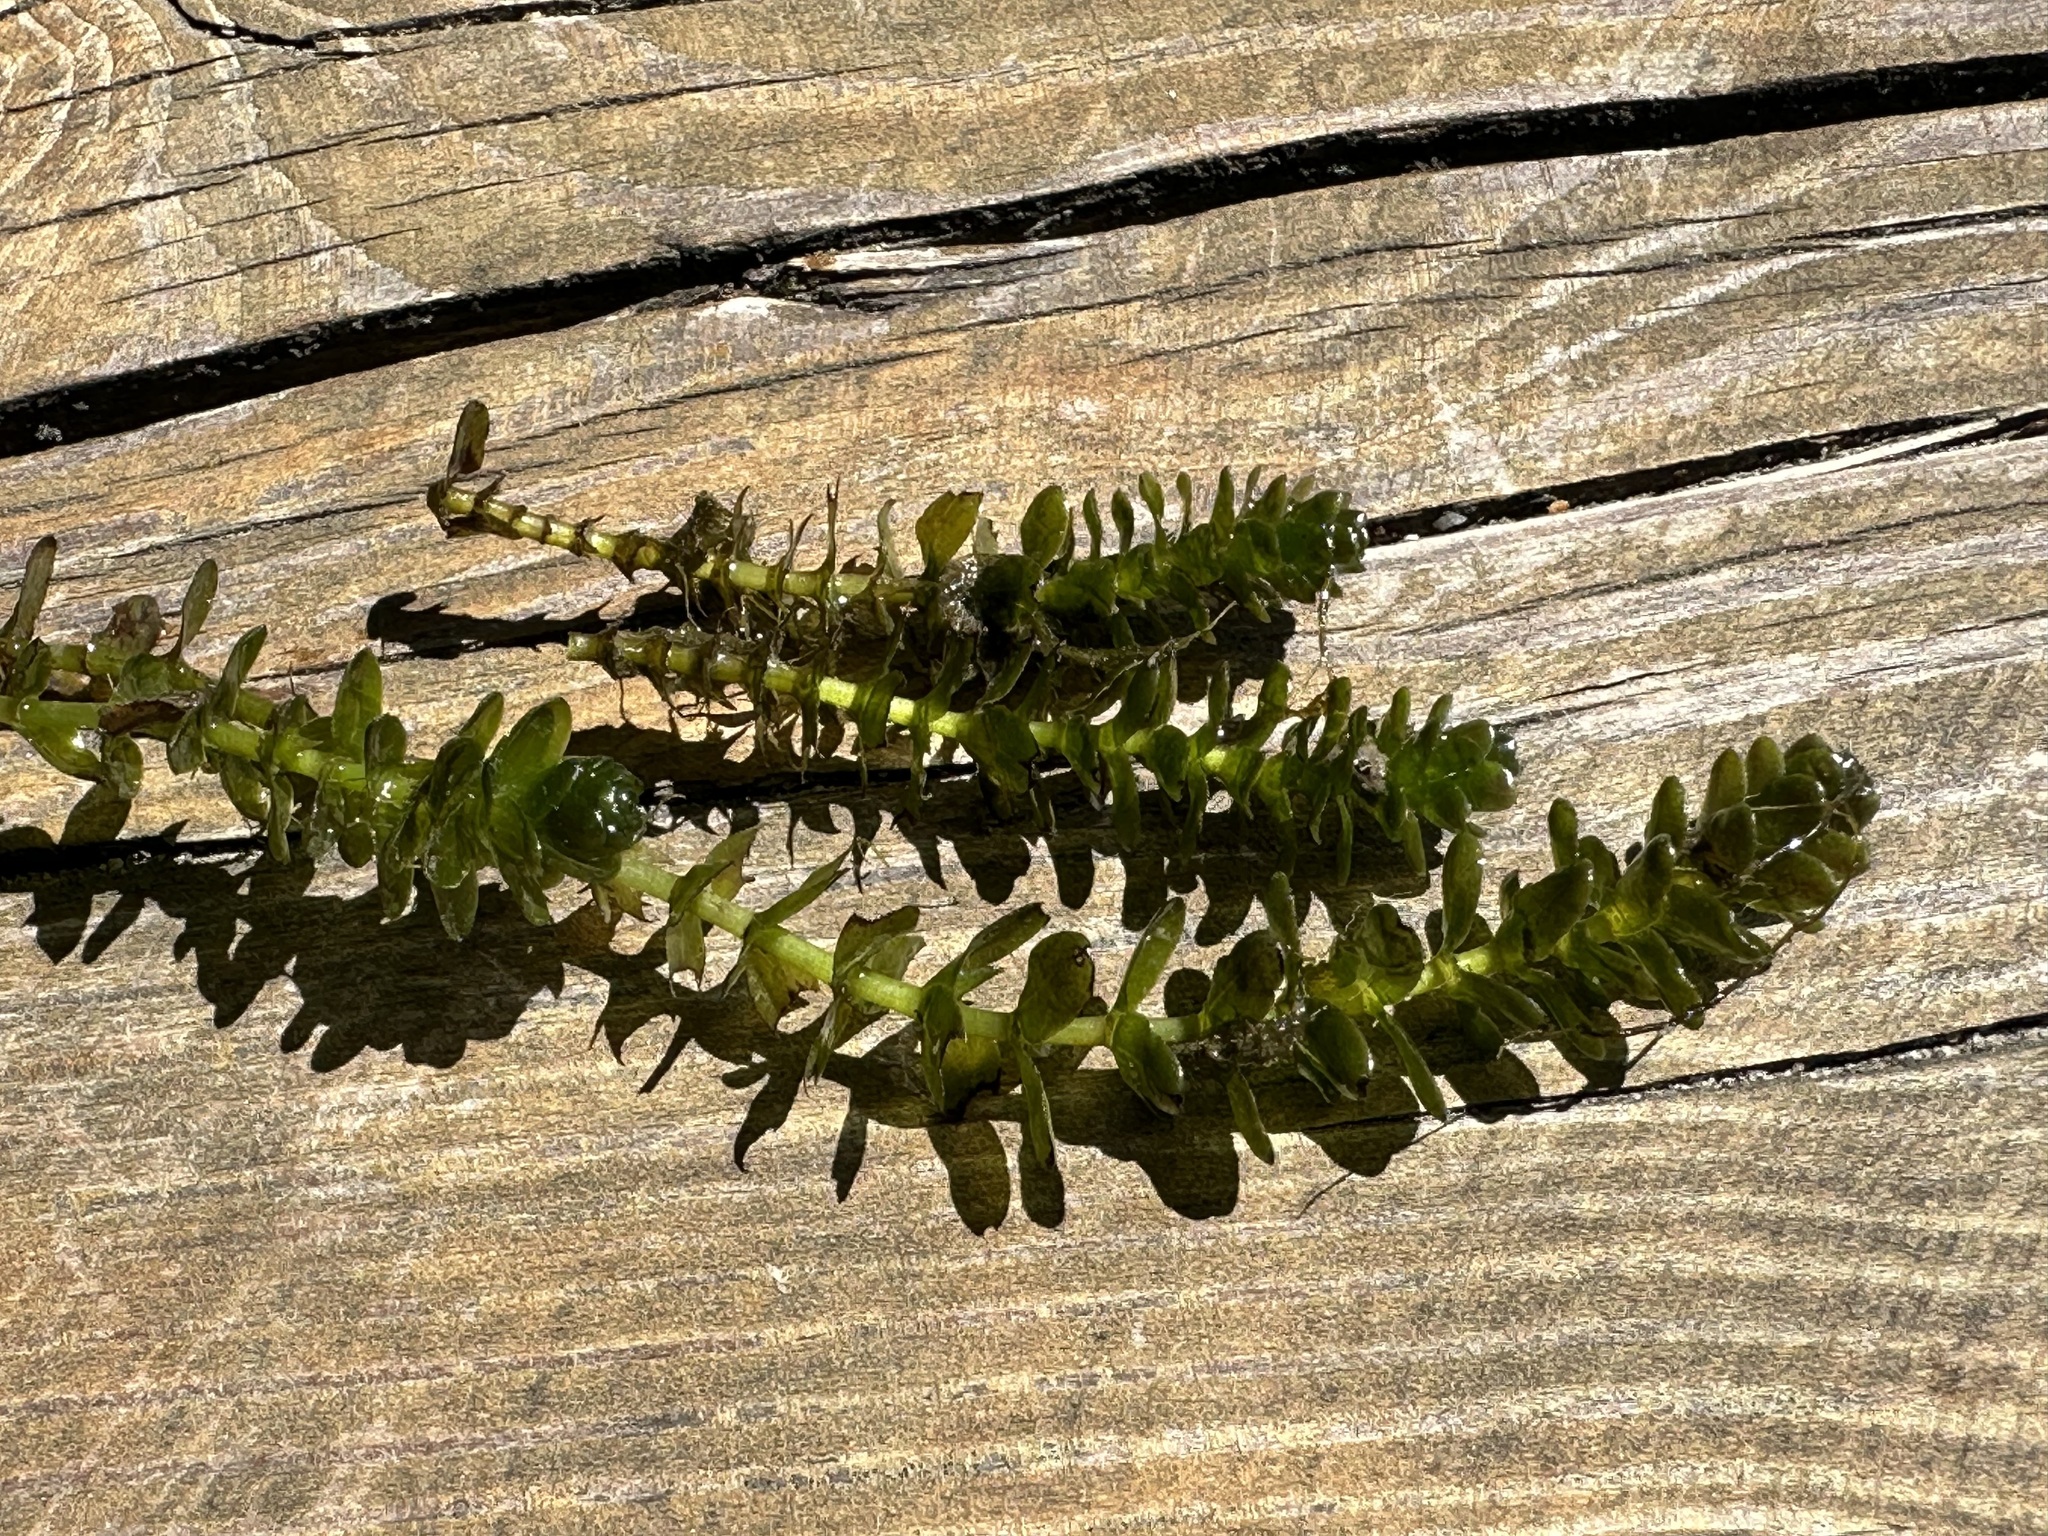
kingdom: Plantae
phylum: Tracheophyta
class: Liliopsida
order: Alismatales
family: Hydrocharitaceae
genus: Elodea
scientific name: Elodea canadensis
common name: Canadian waterweed
